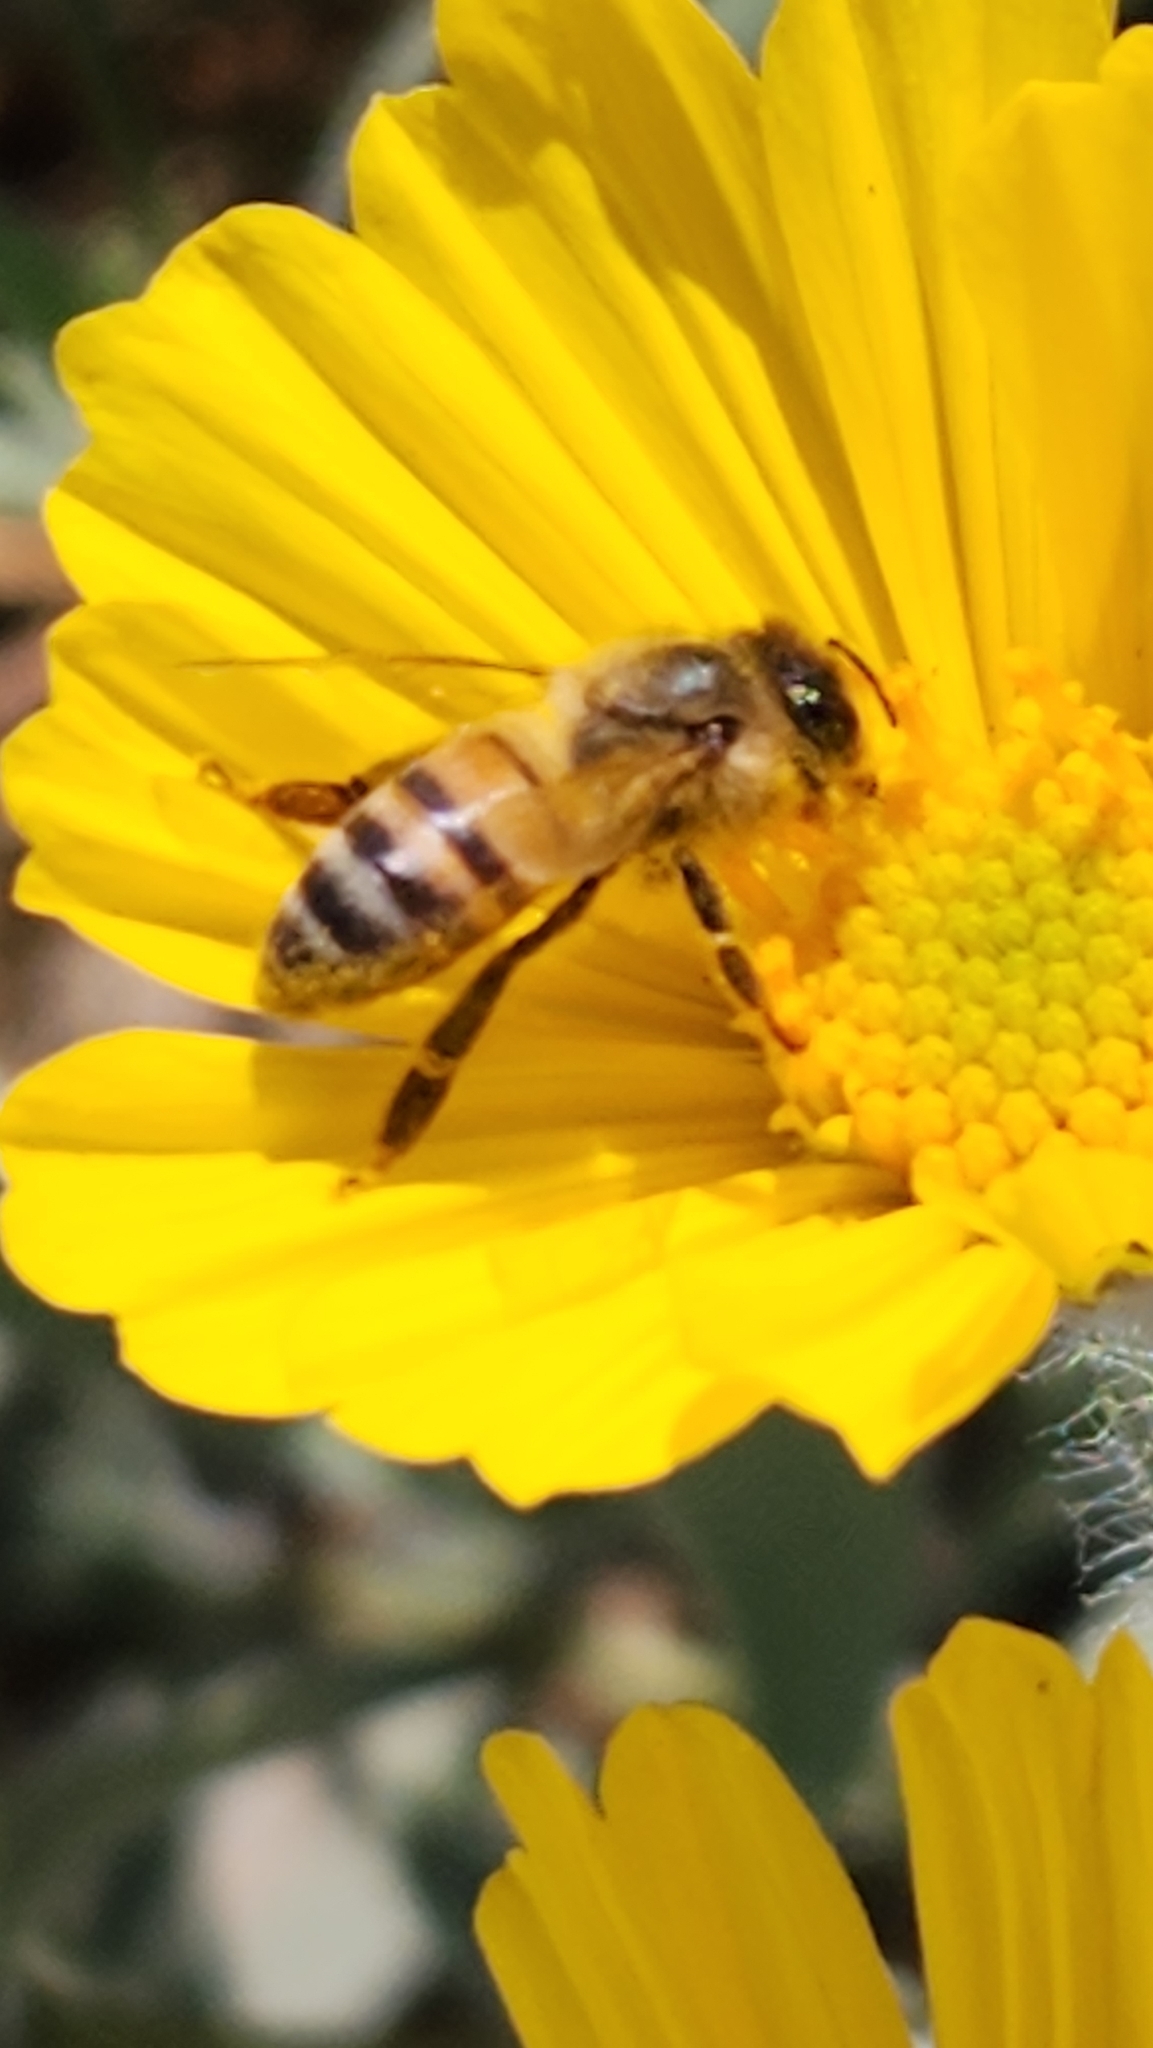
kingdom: Animalia
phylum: Arthropoda
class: Insecta
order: Hymenoptera
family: Apidae
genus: Apis
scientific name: Apis mellifera
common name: Honey bee
